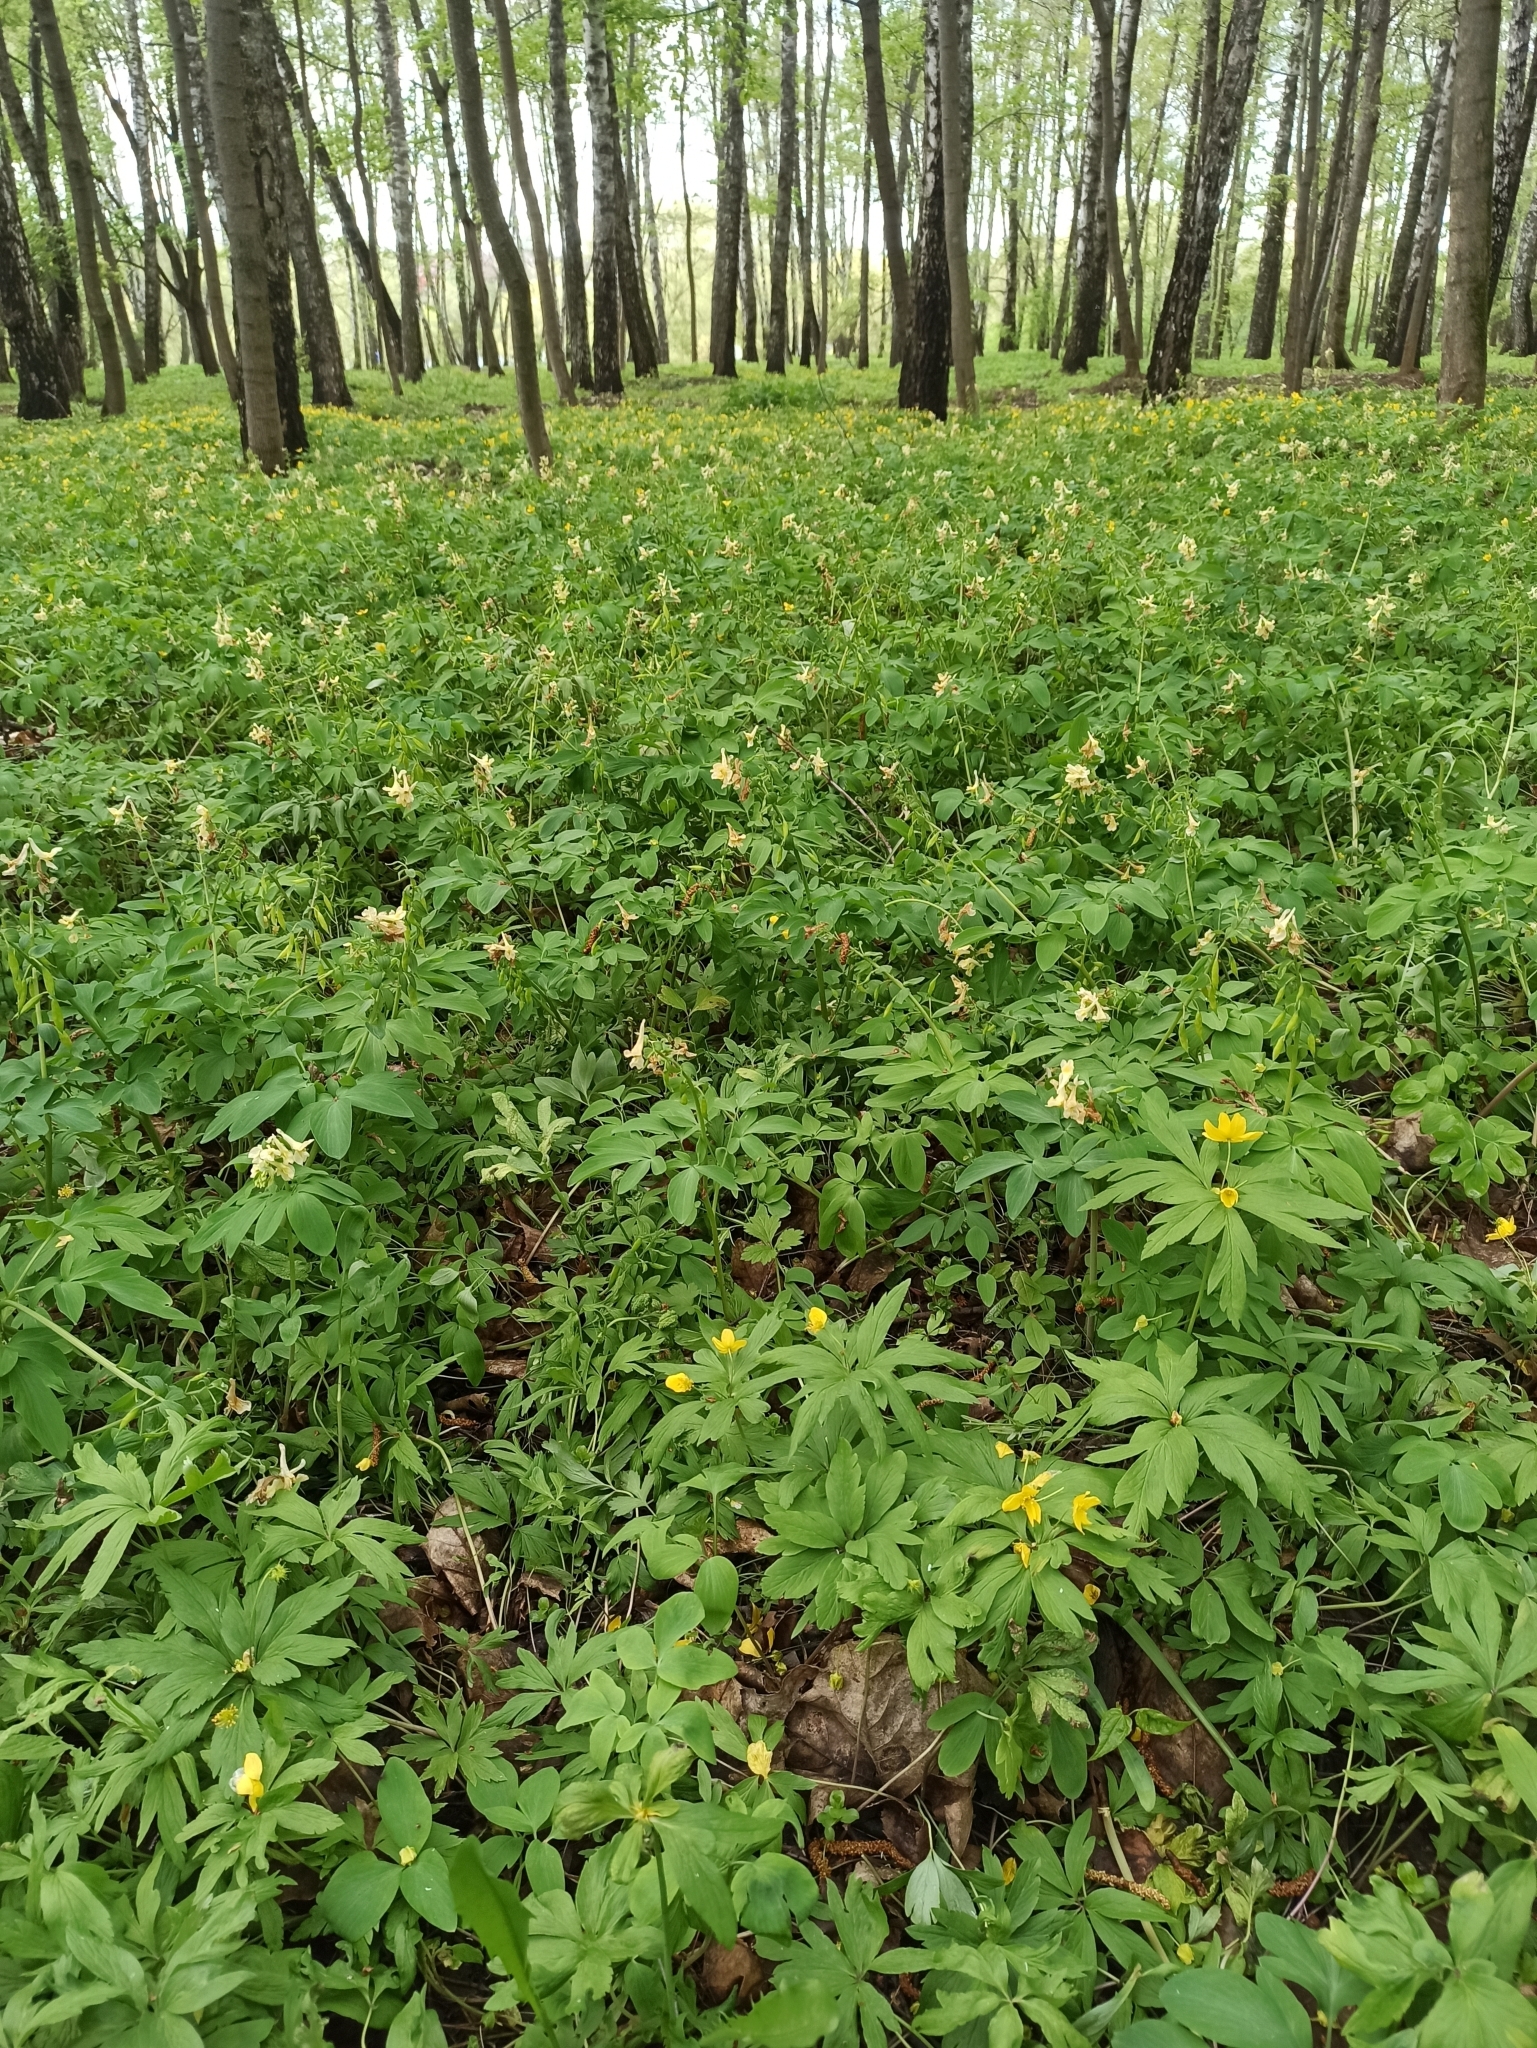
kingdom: Plantae
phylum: Tracheophyta
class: Magnoliopsida
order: Ranunculales
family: Papaveraceae
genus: Corydalis
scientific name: Corydalis cava
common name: Hollowroot
